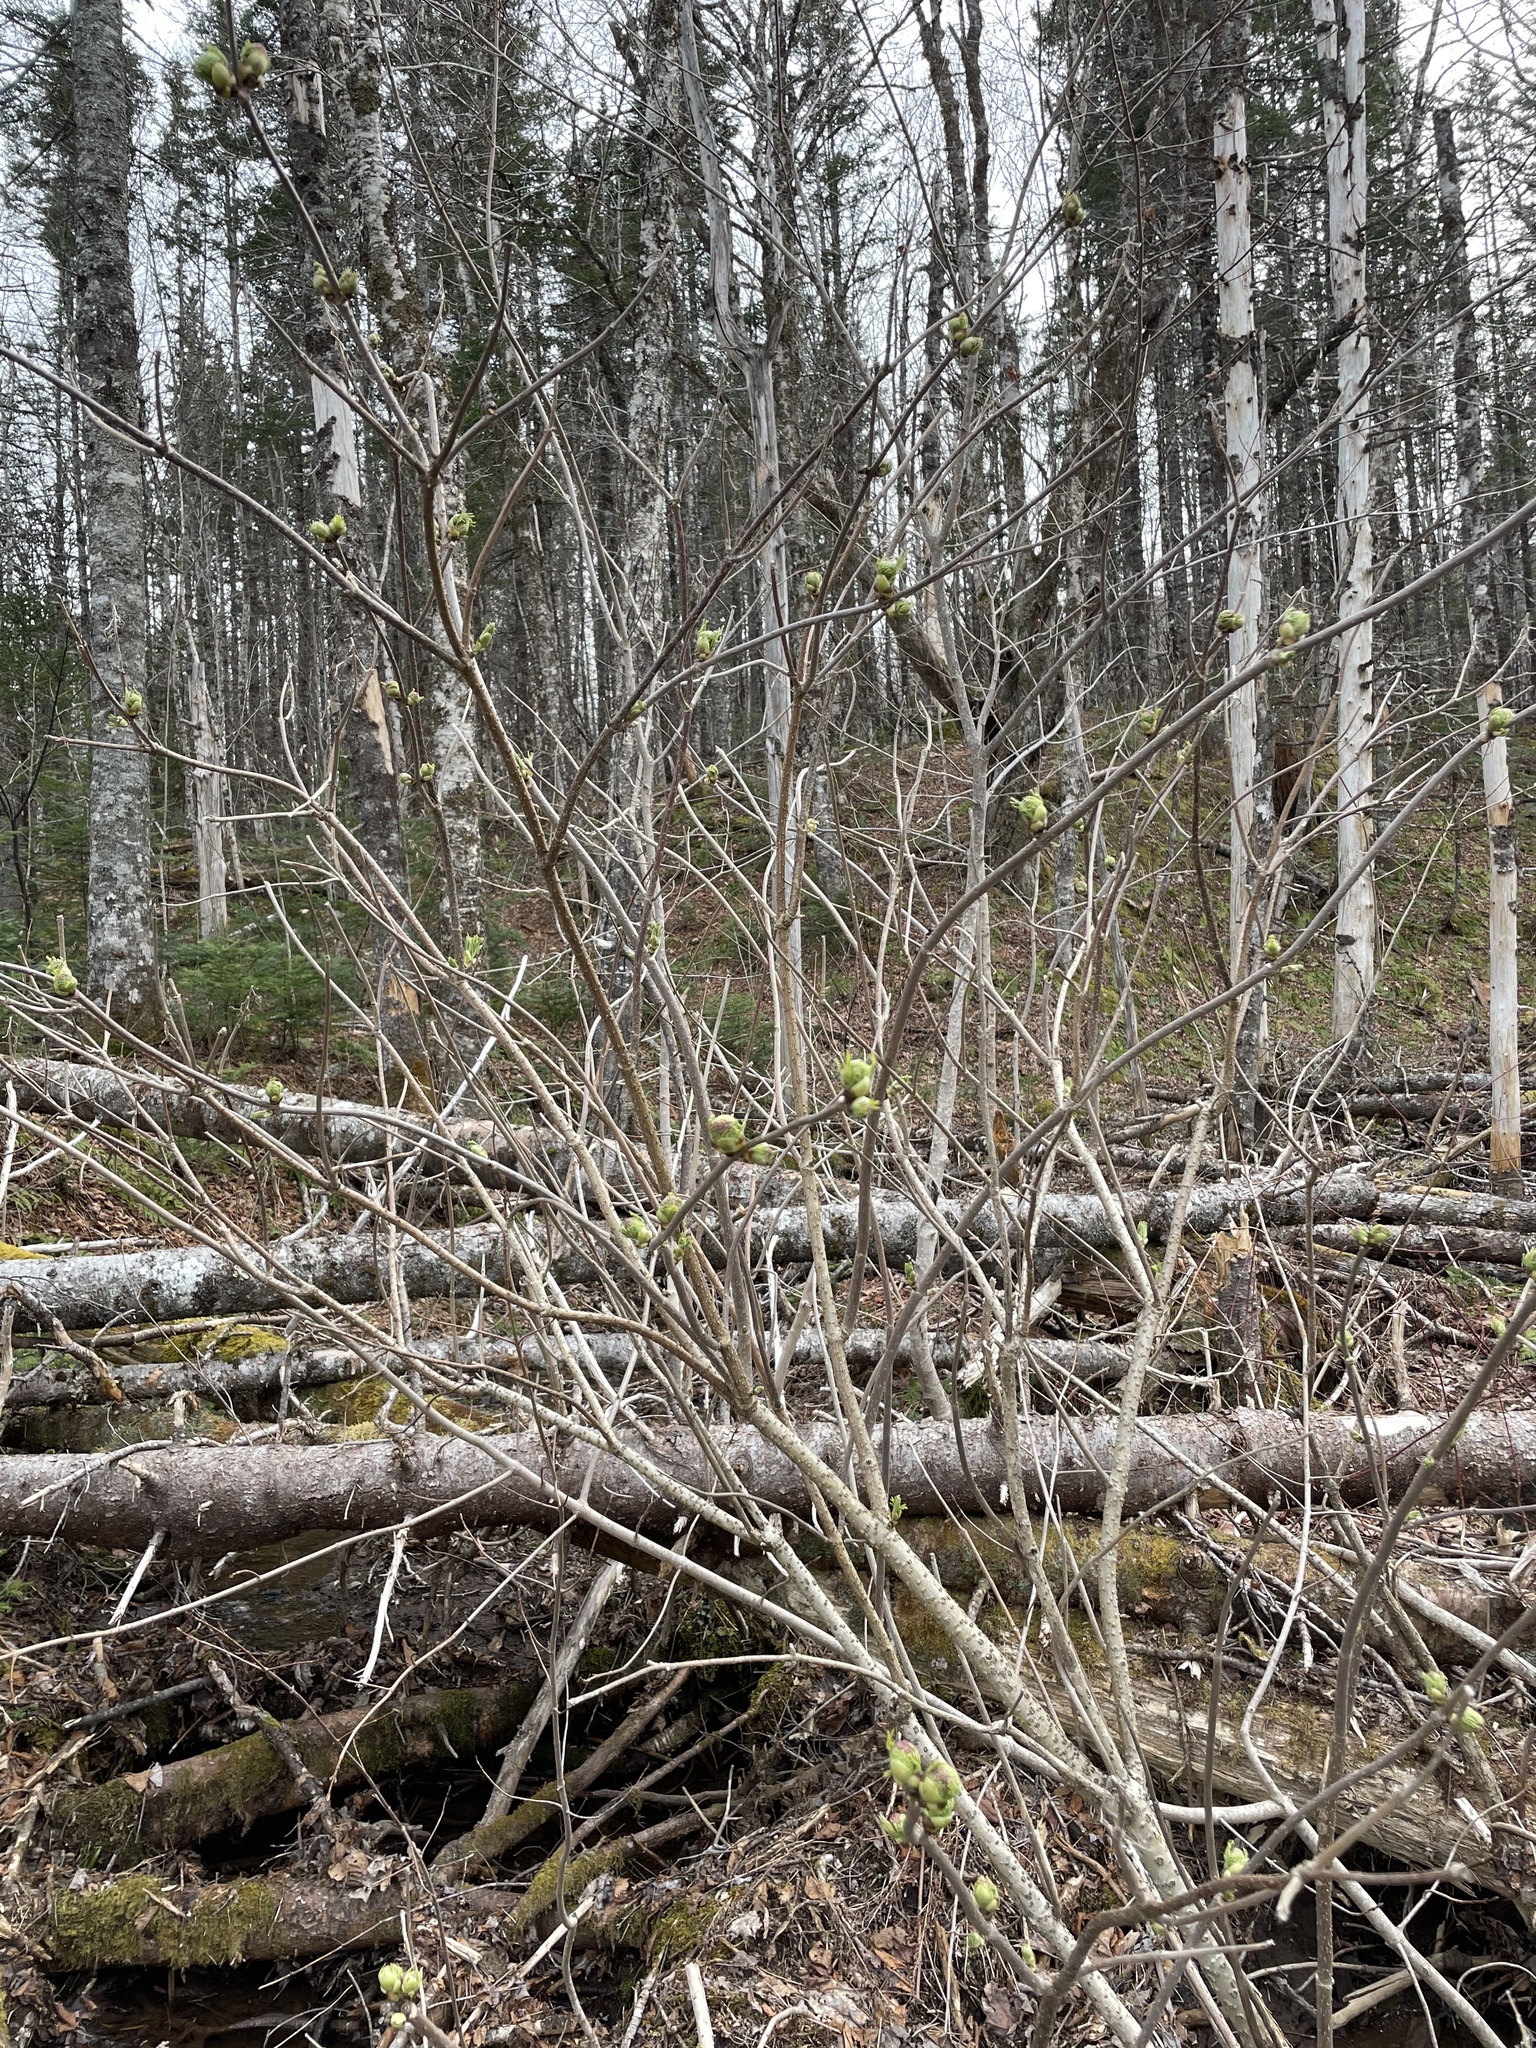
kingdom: Plantae
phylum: Tracheophyta
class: Magnoliopsida
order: Dipsacales
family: Viburnaceae
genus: Sambucus
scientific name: Sambucus racemosa
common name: Red-berried elder
